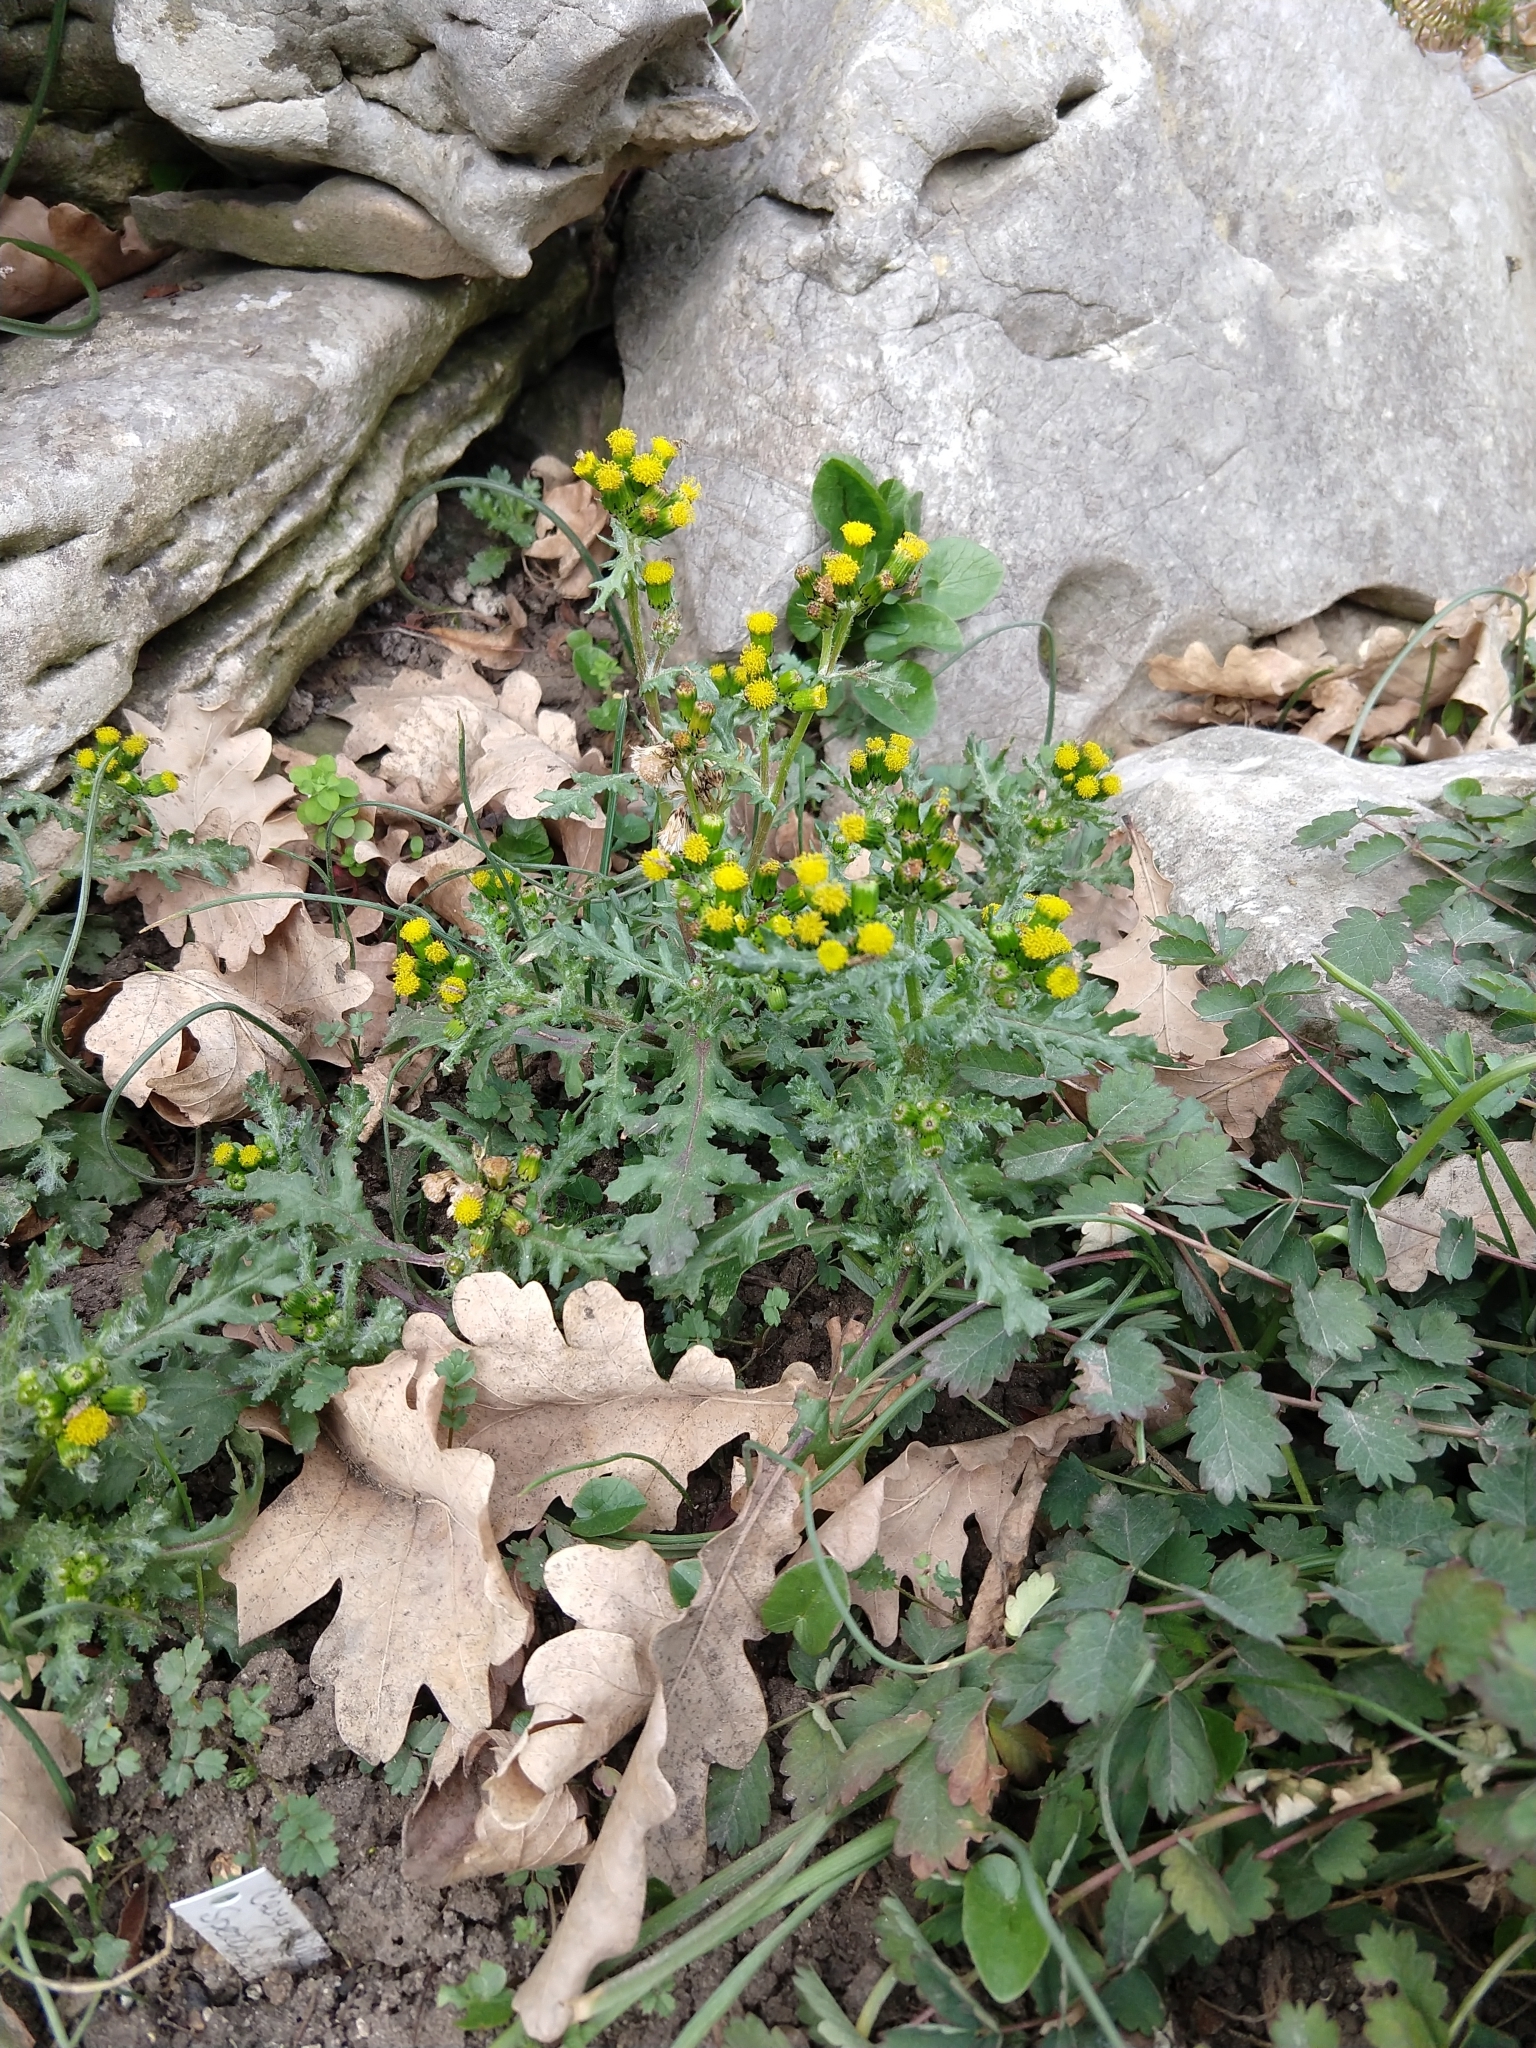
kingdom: Plantae
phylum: Tracheophyta
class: Magnoliopsida
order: Asterales
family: Asteraceae
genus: Senecio
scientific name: Senecio vulgaris
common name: Old-man-in-the-spring
